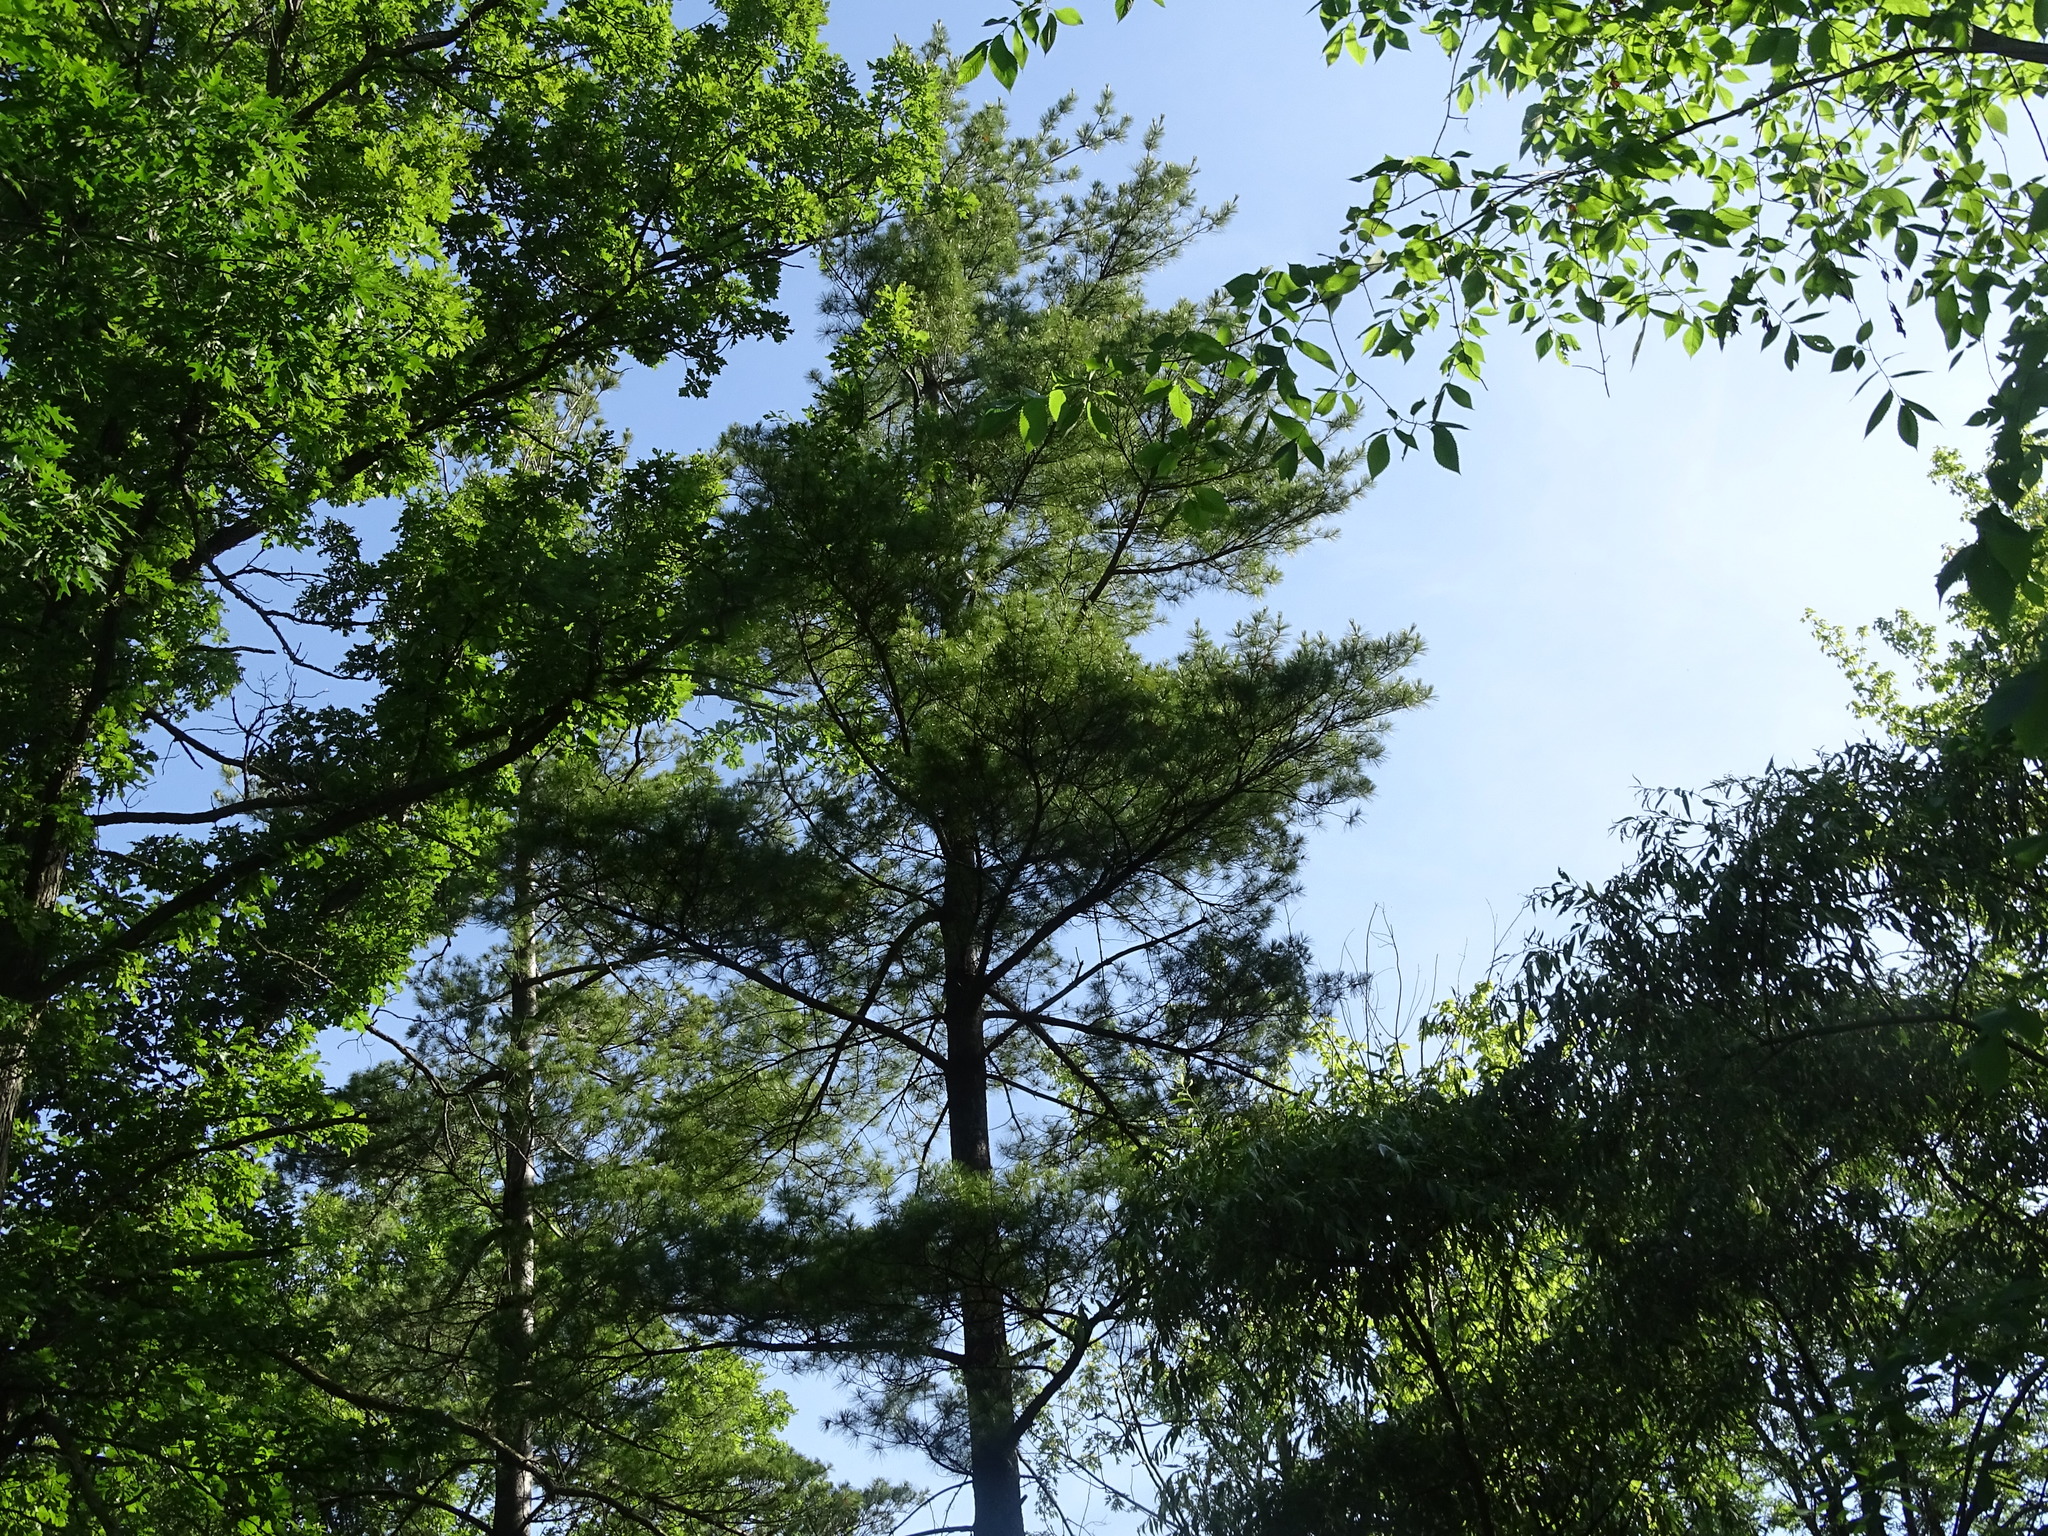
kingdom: Plantae
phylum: Tracheophyta
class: Pinopsida
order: Pinales
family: Pinaceae
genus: Pinus
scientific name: Pinus strobus
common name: Weymouth pine
